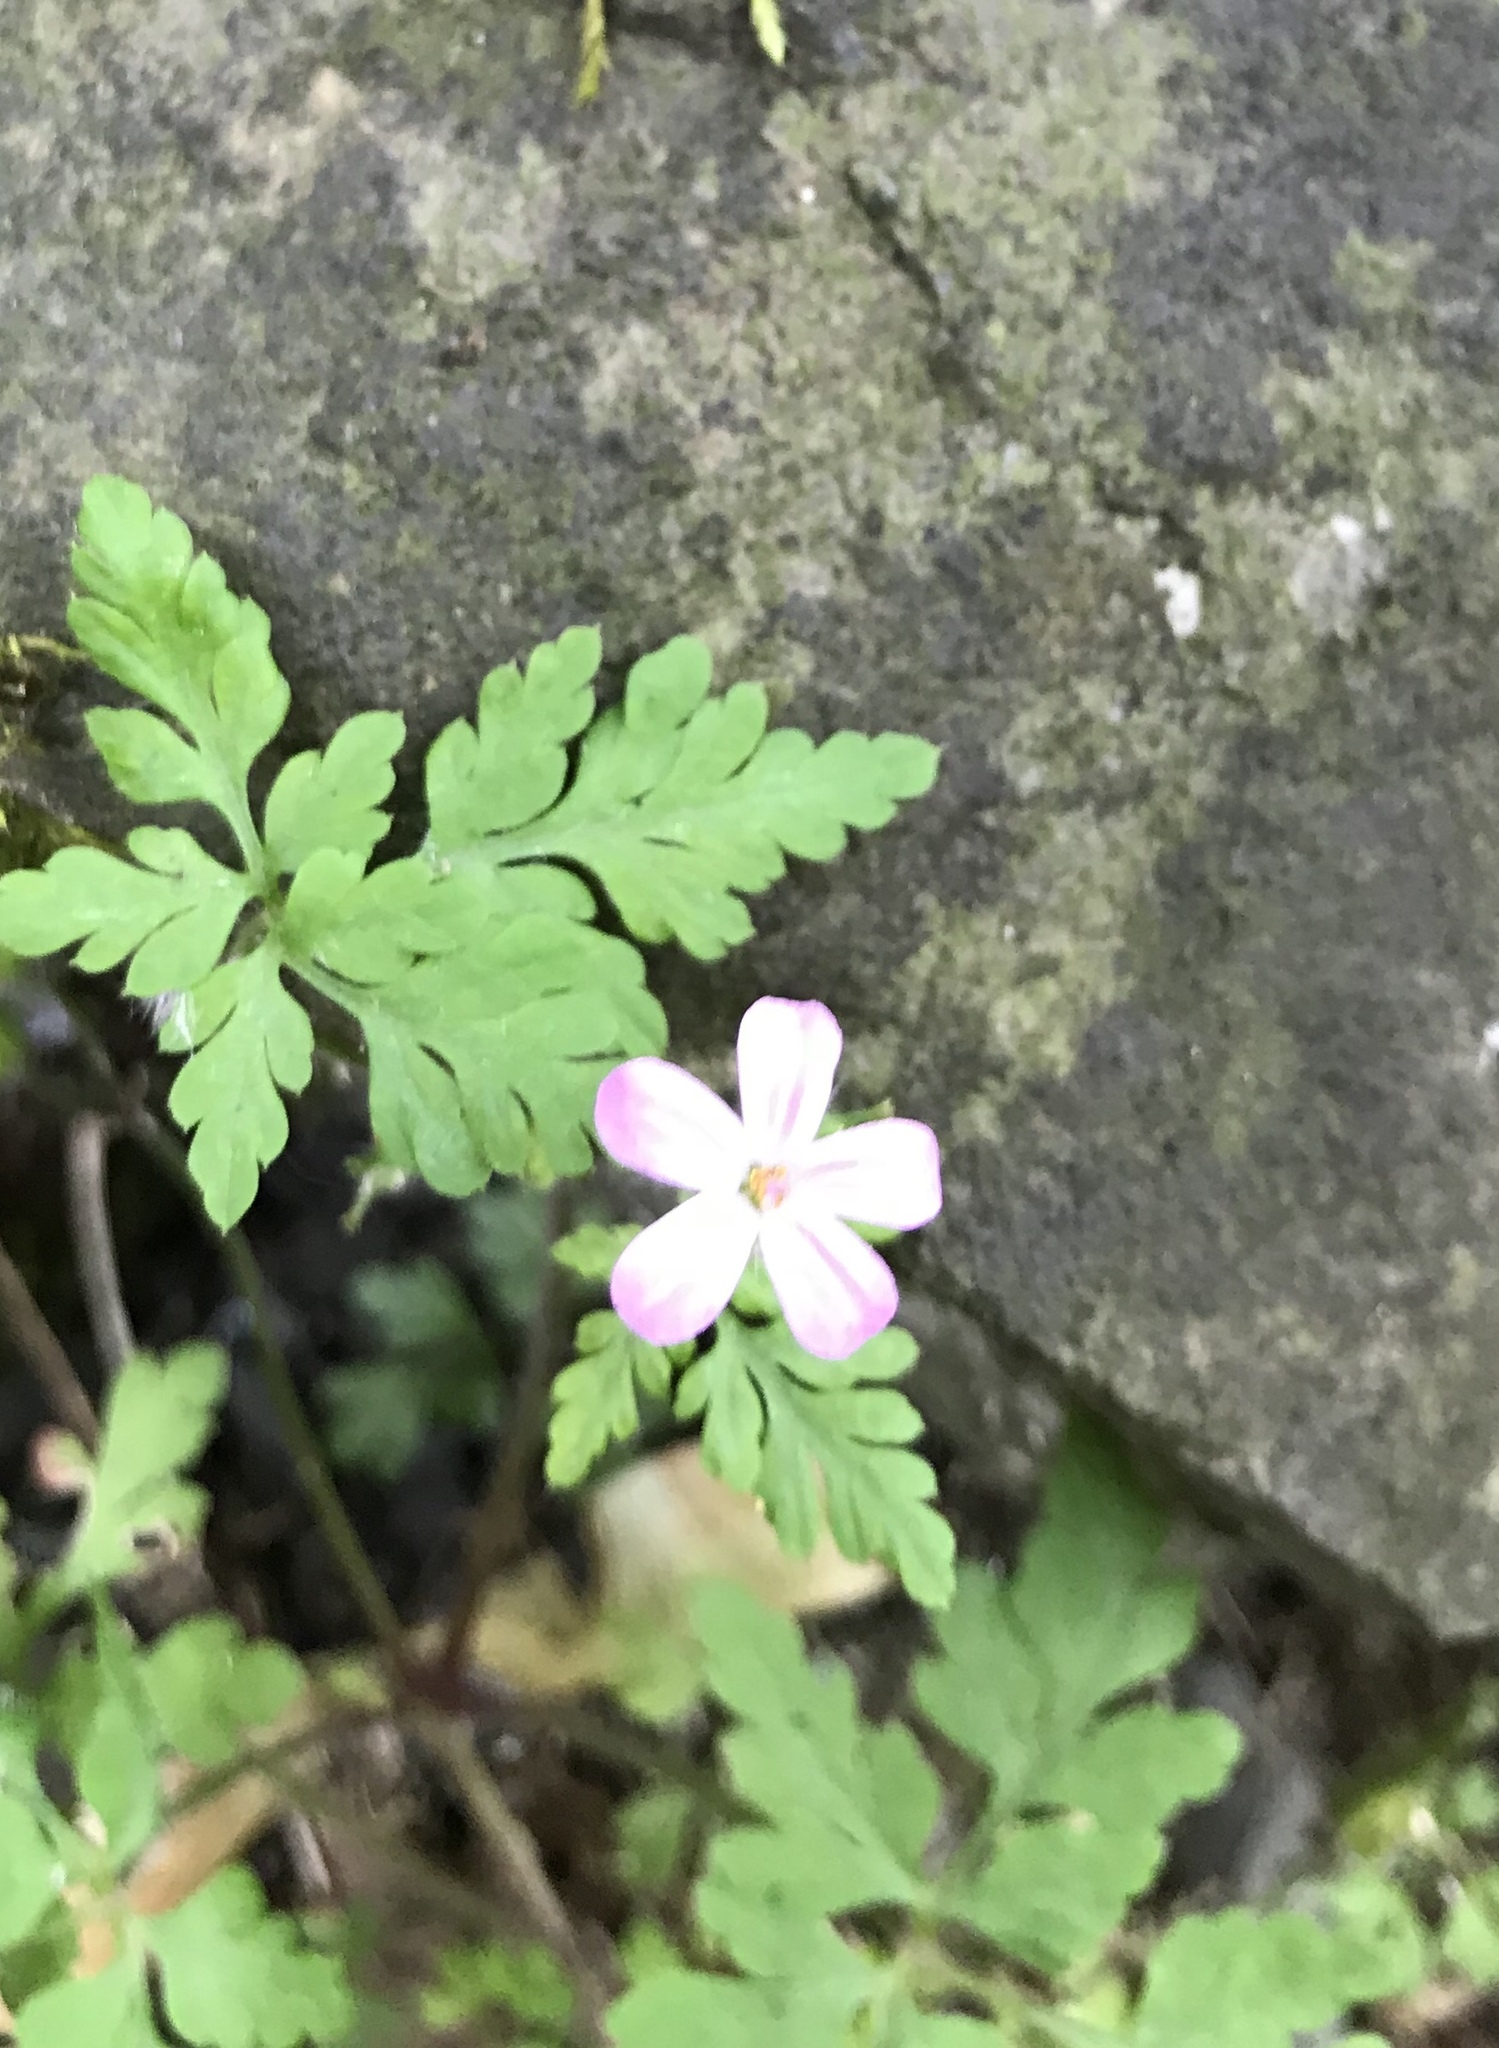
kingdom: Plantae
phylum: Tracheophyta
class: Magnoliopsida
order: Geraniales
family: Geraniaceae
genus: Geranium
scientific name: Geranium robertianum
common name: Herb-robert
